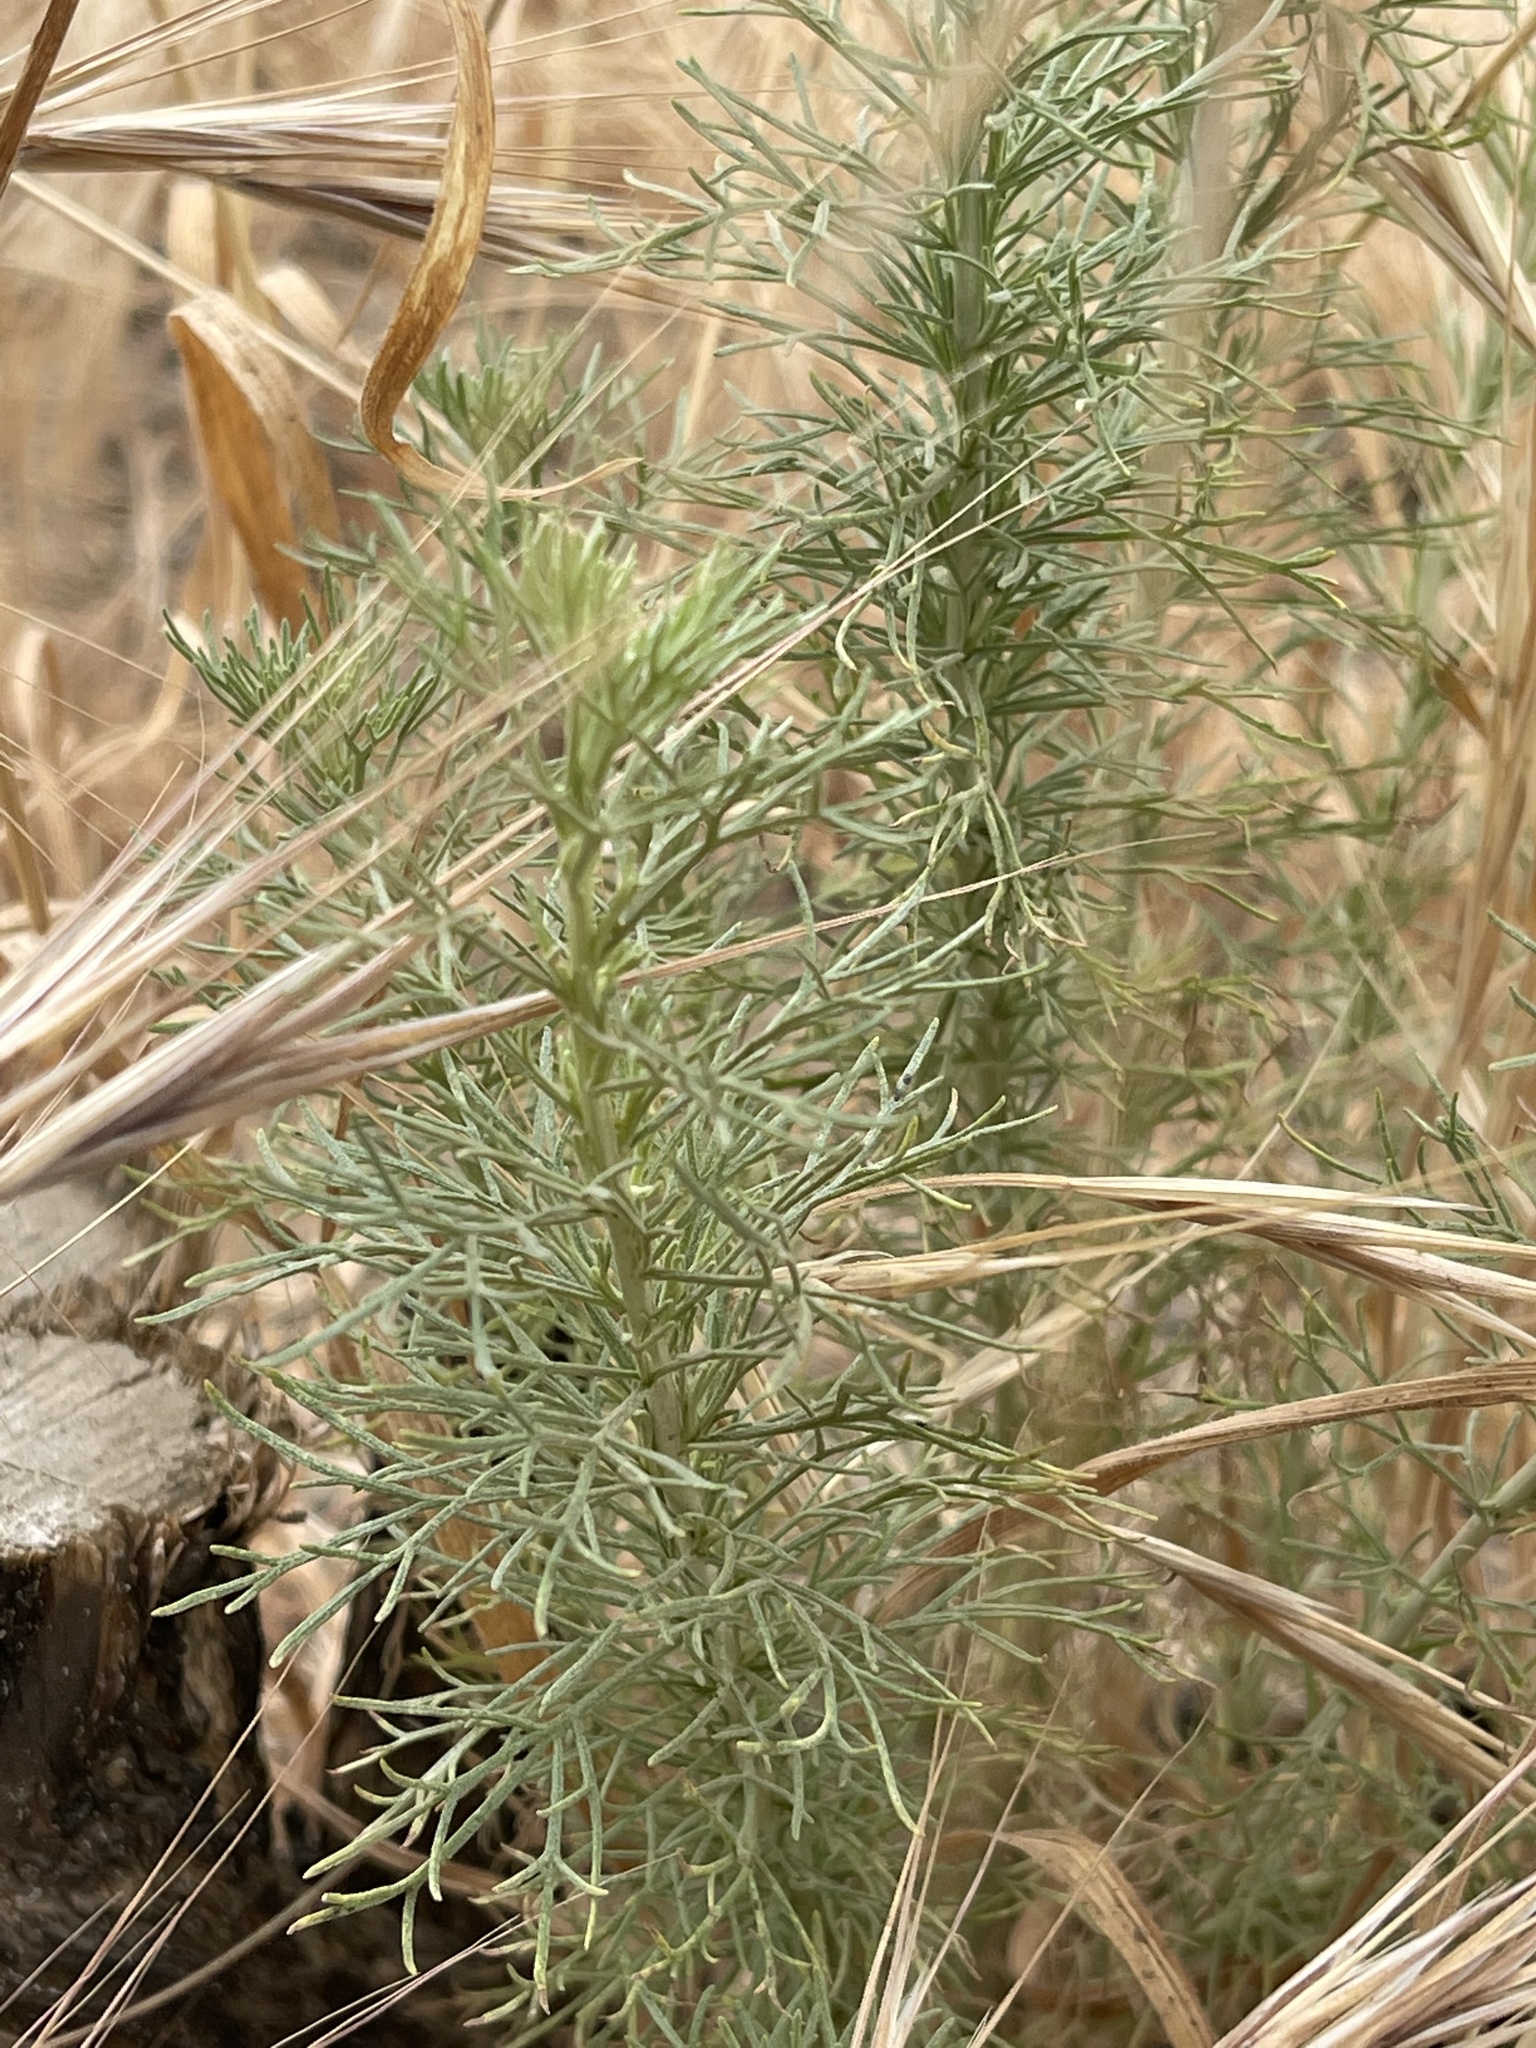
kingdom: Plantae
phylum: Tracheophyta
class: Magnoliopsida
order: Asterales
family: Asteraceae
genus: Artemisia
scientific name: Artemisia californica
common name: California sagebrush
